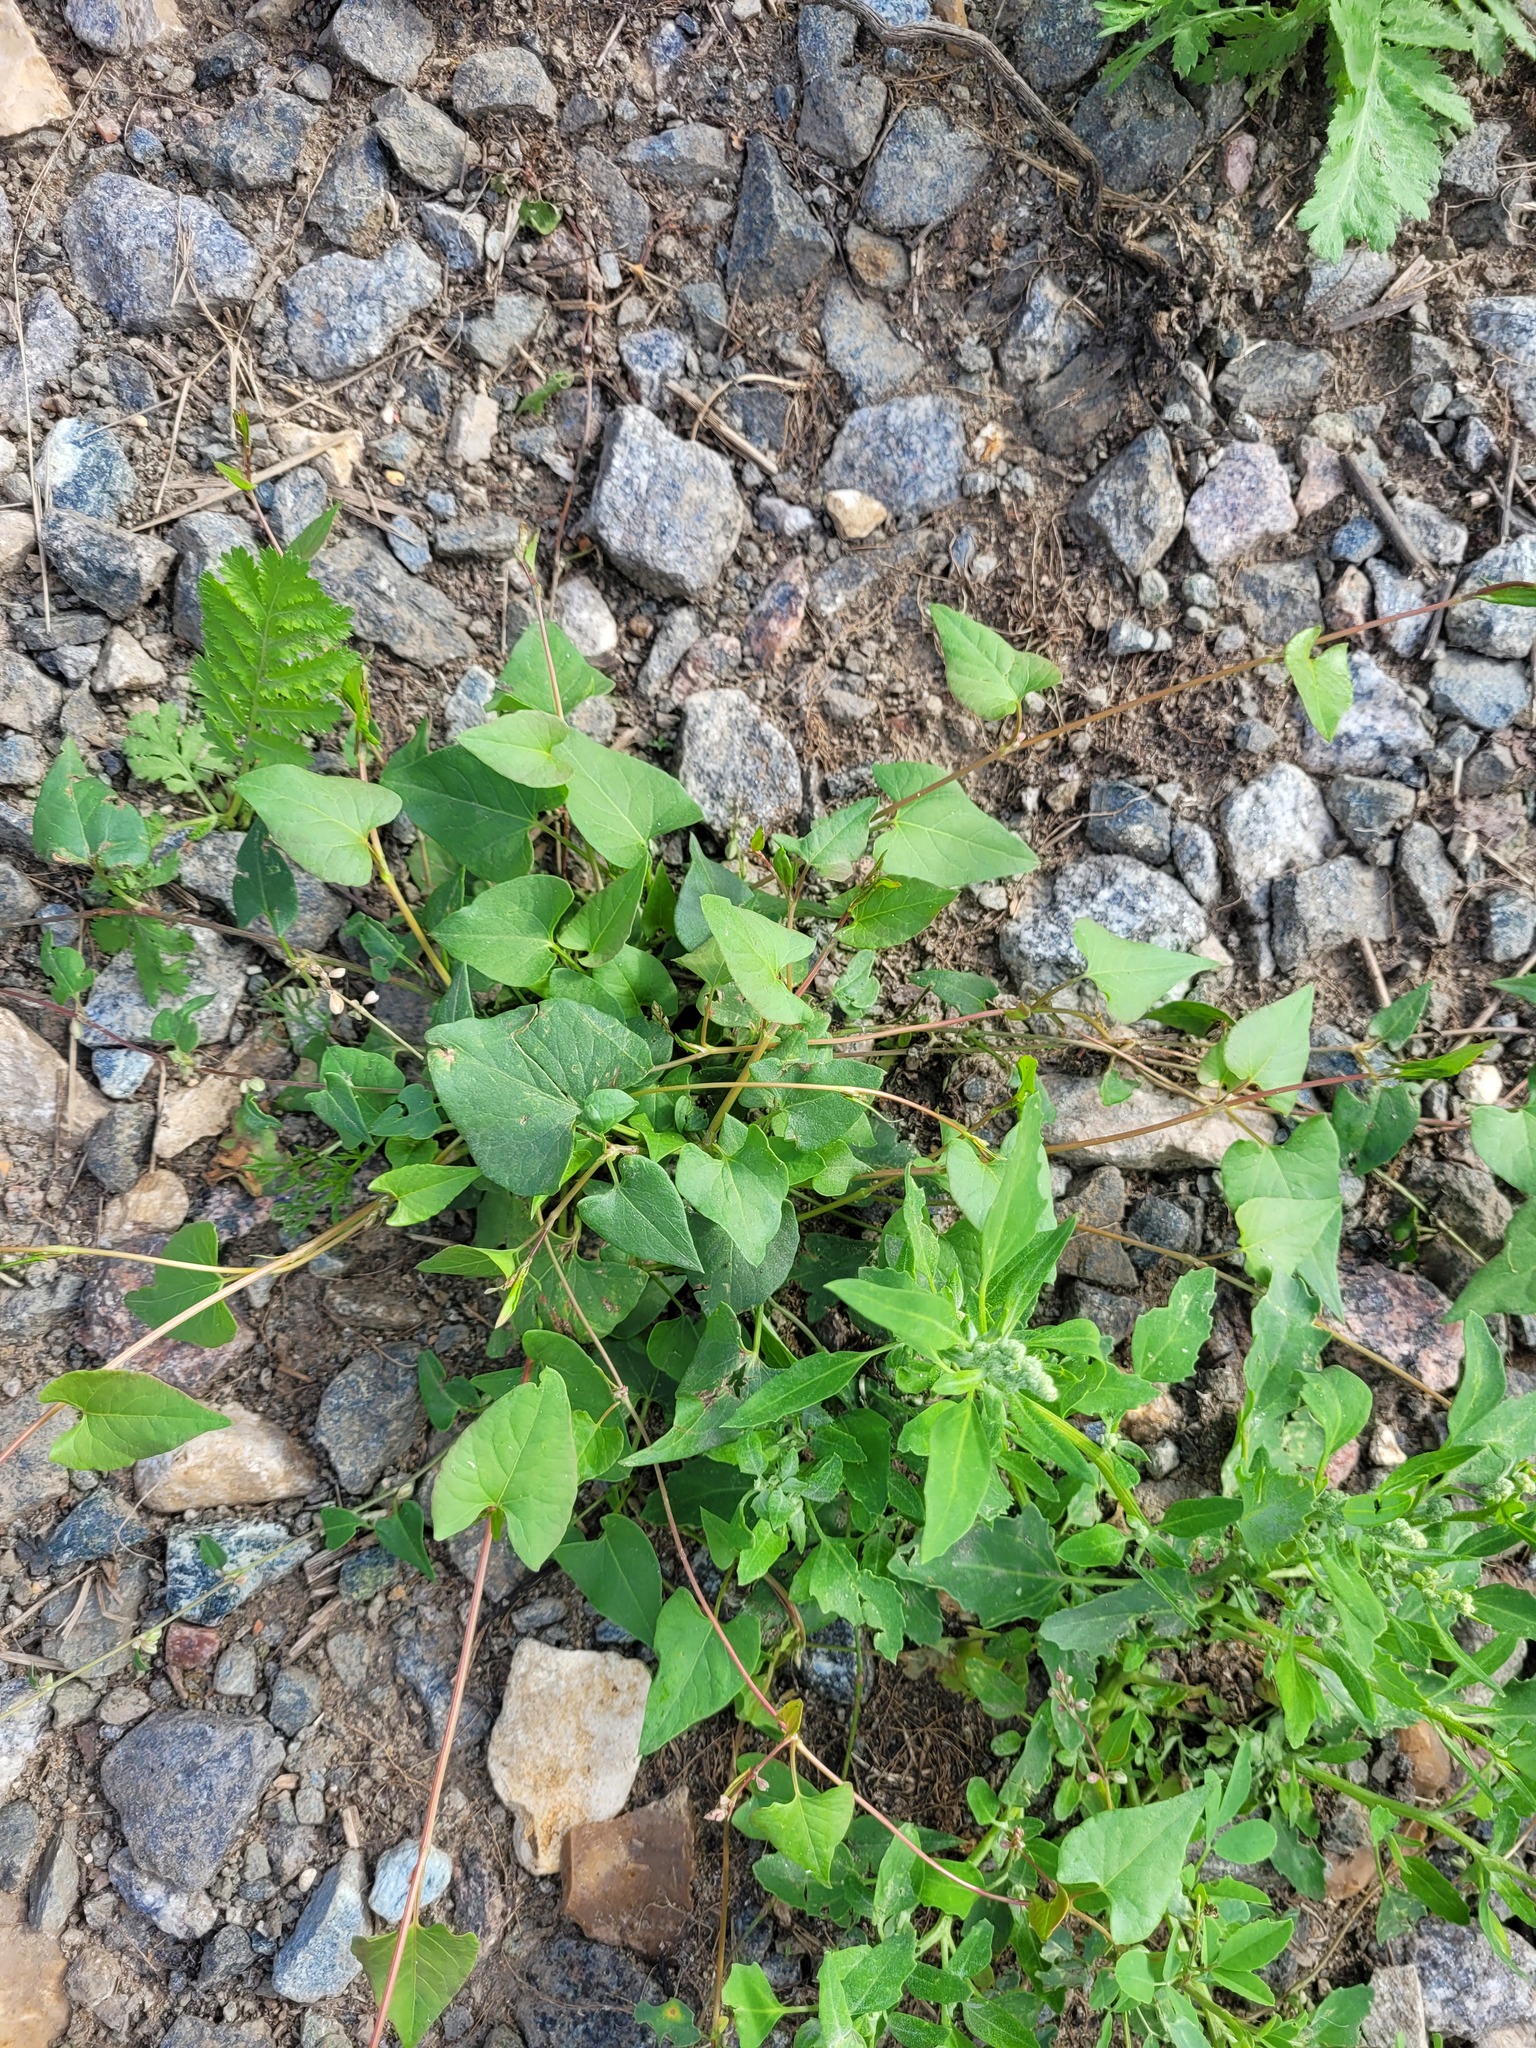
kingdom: Plantae
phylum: Tracheophyta
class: Magnoliopsida
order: Caryophyllales
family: Polygonaceae
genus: Fallopia
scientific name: Fallopia convolvulus
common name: Black bindweed
